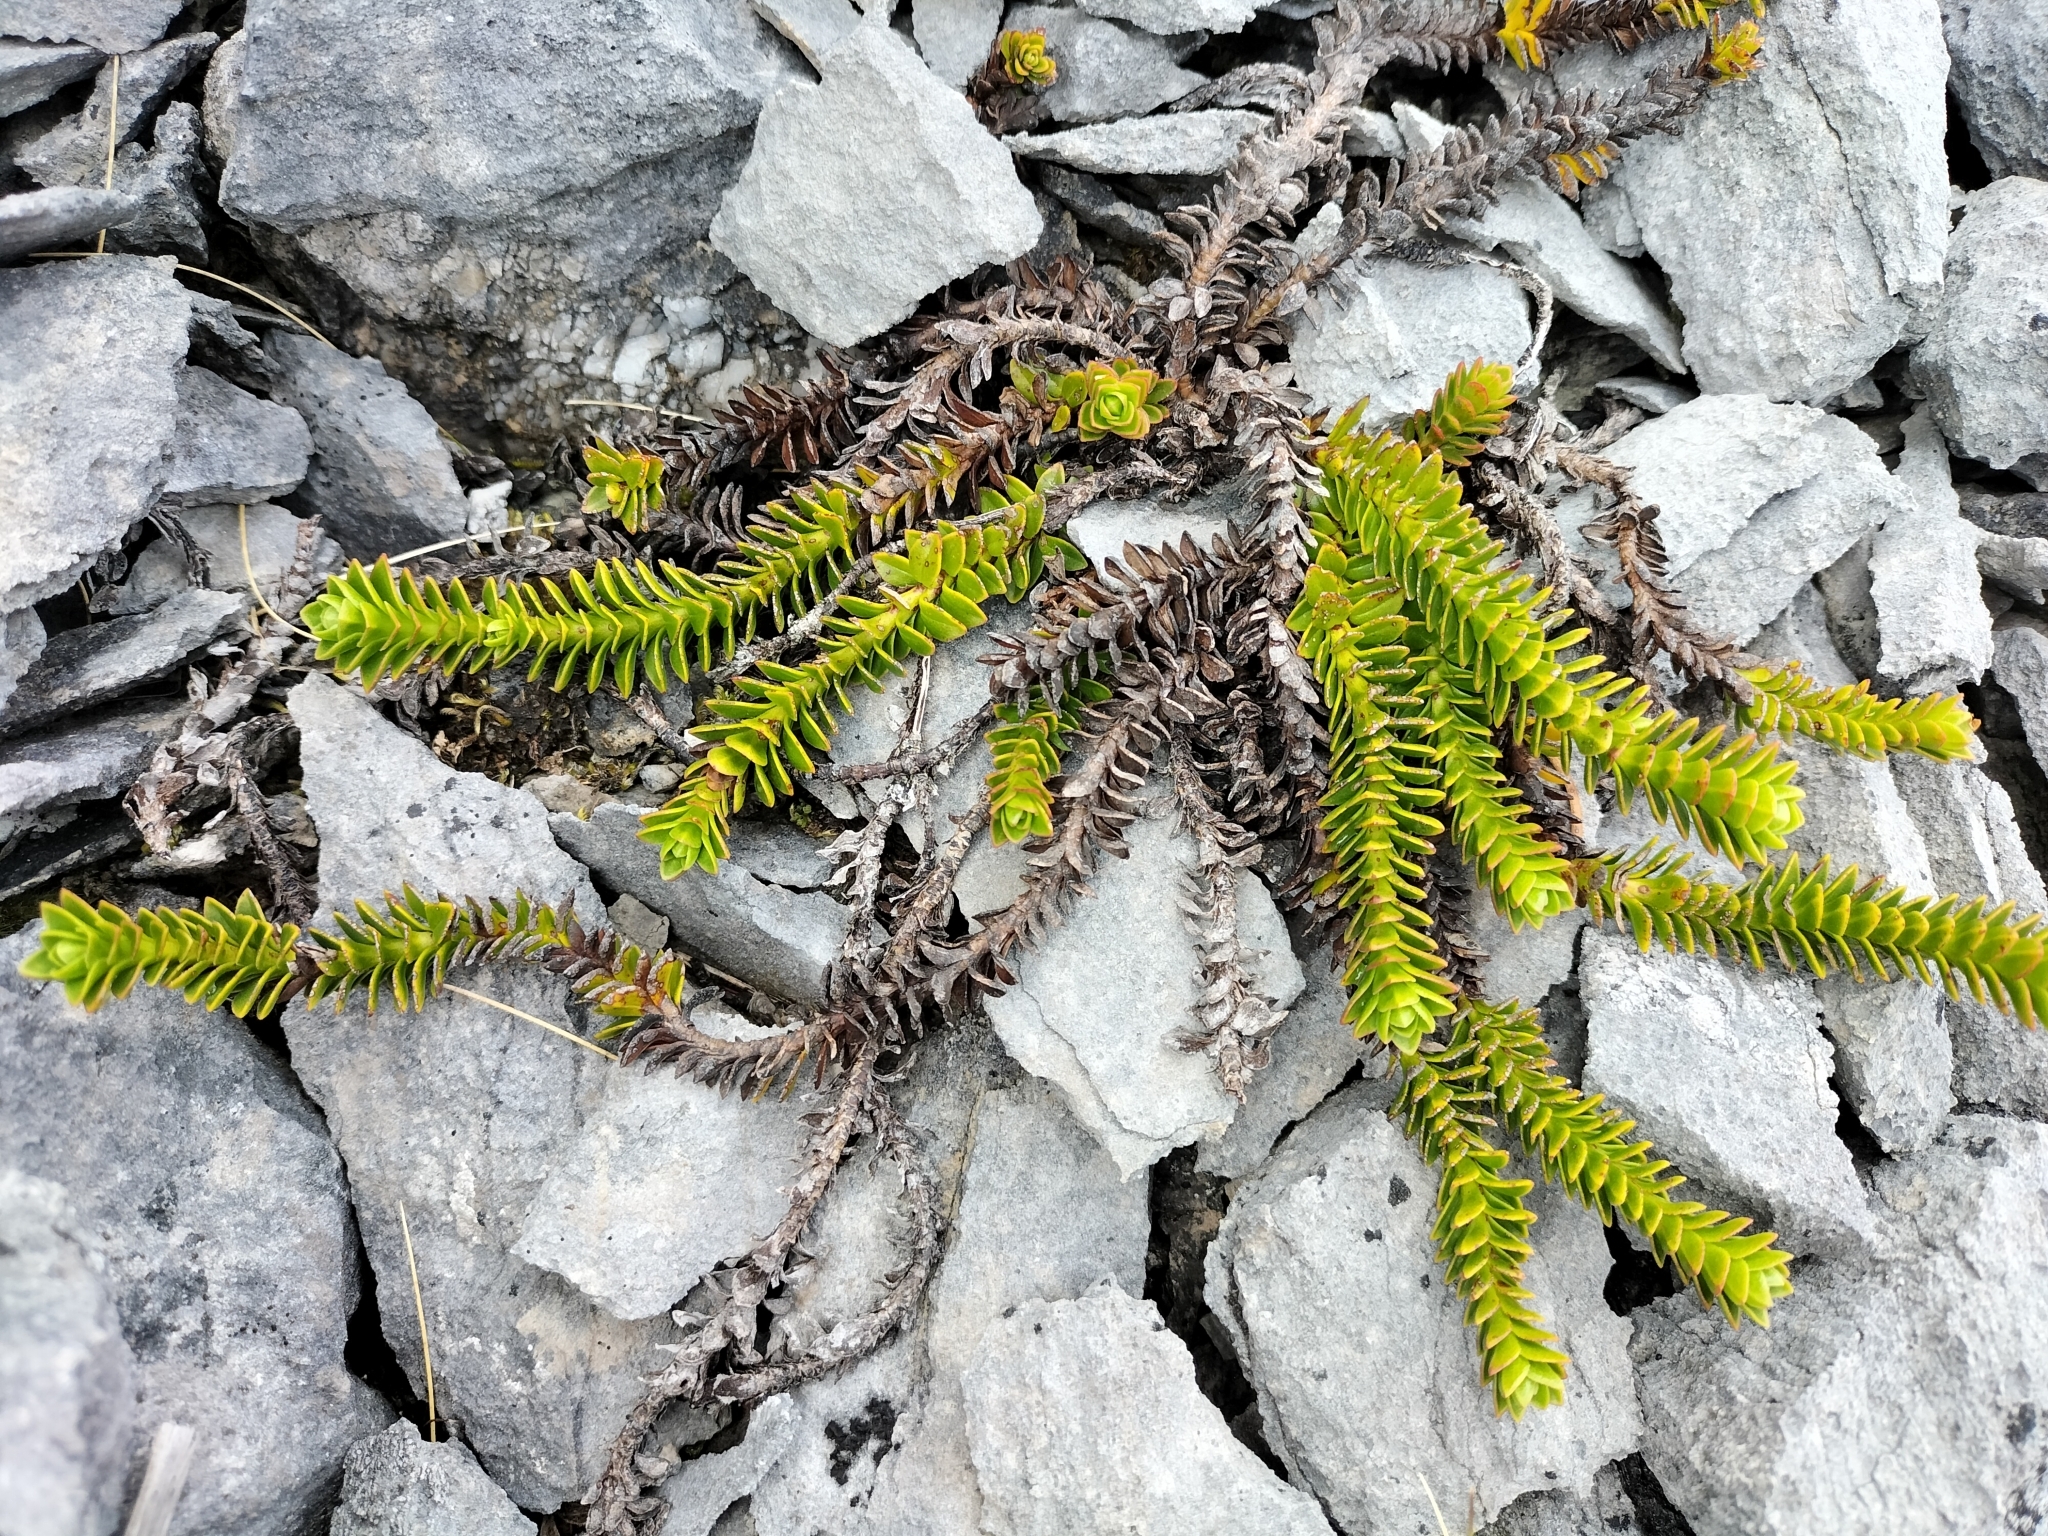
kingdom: Plantae
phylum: Tracheophyta
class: Magnoliopsida
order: Lamiales
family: Plantaginaceae
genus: Veronica
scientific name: Veronica epacridea
